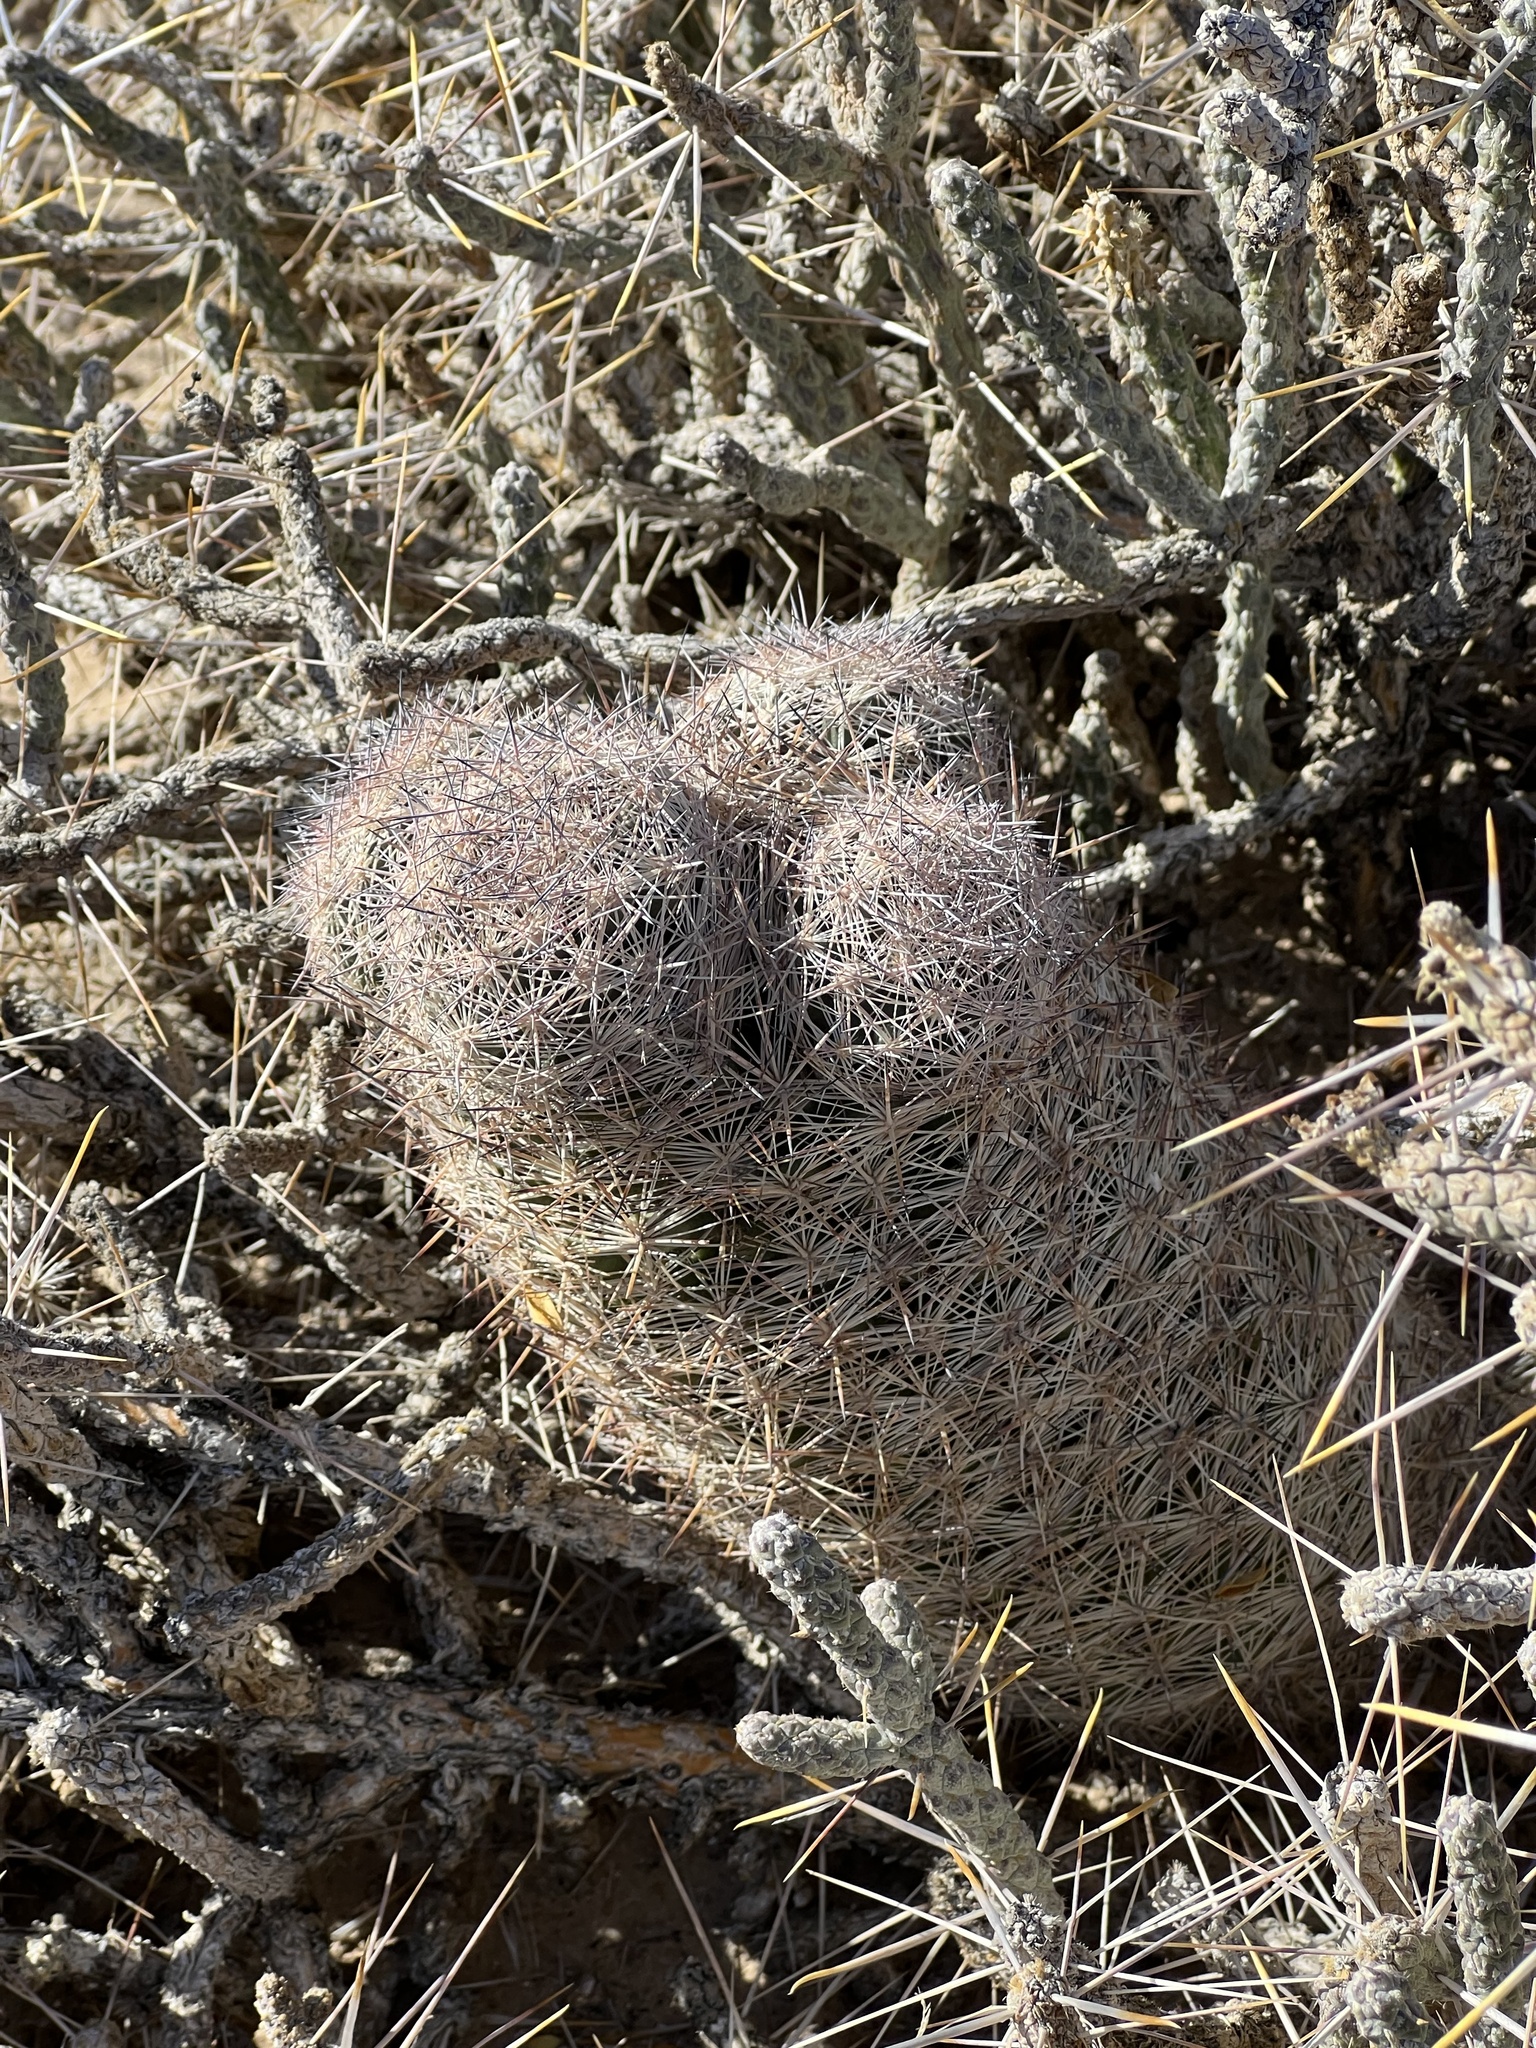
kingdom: Plantae
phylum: Tracheophyta
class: Magnoliopsida
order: Caryophyllales
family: Cactaceae
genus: Pelecyphora
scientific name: Pelecyphora dasyacantha
